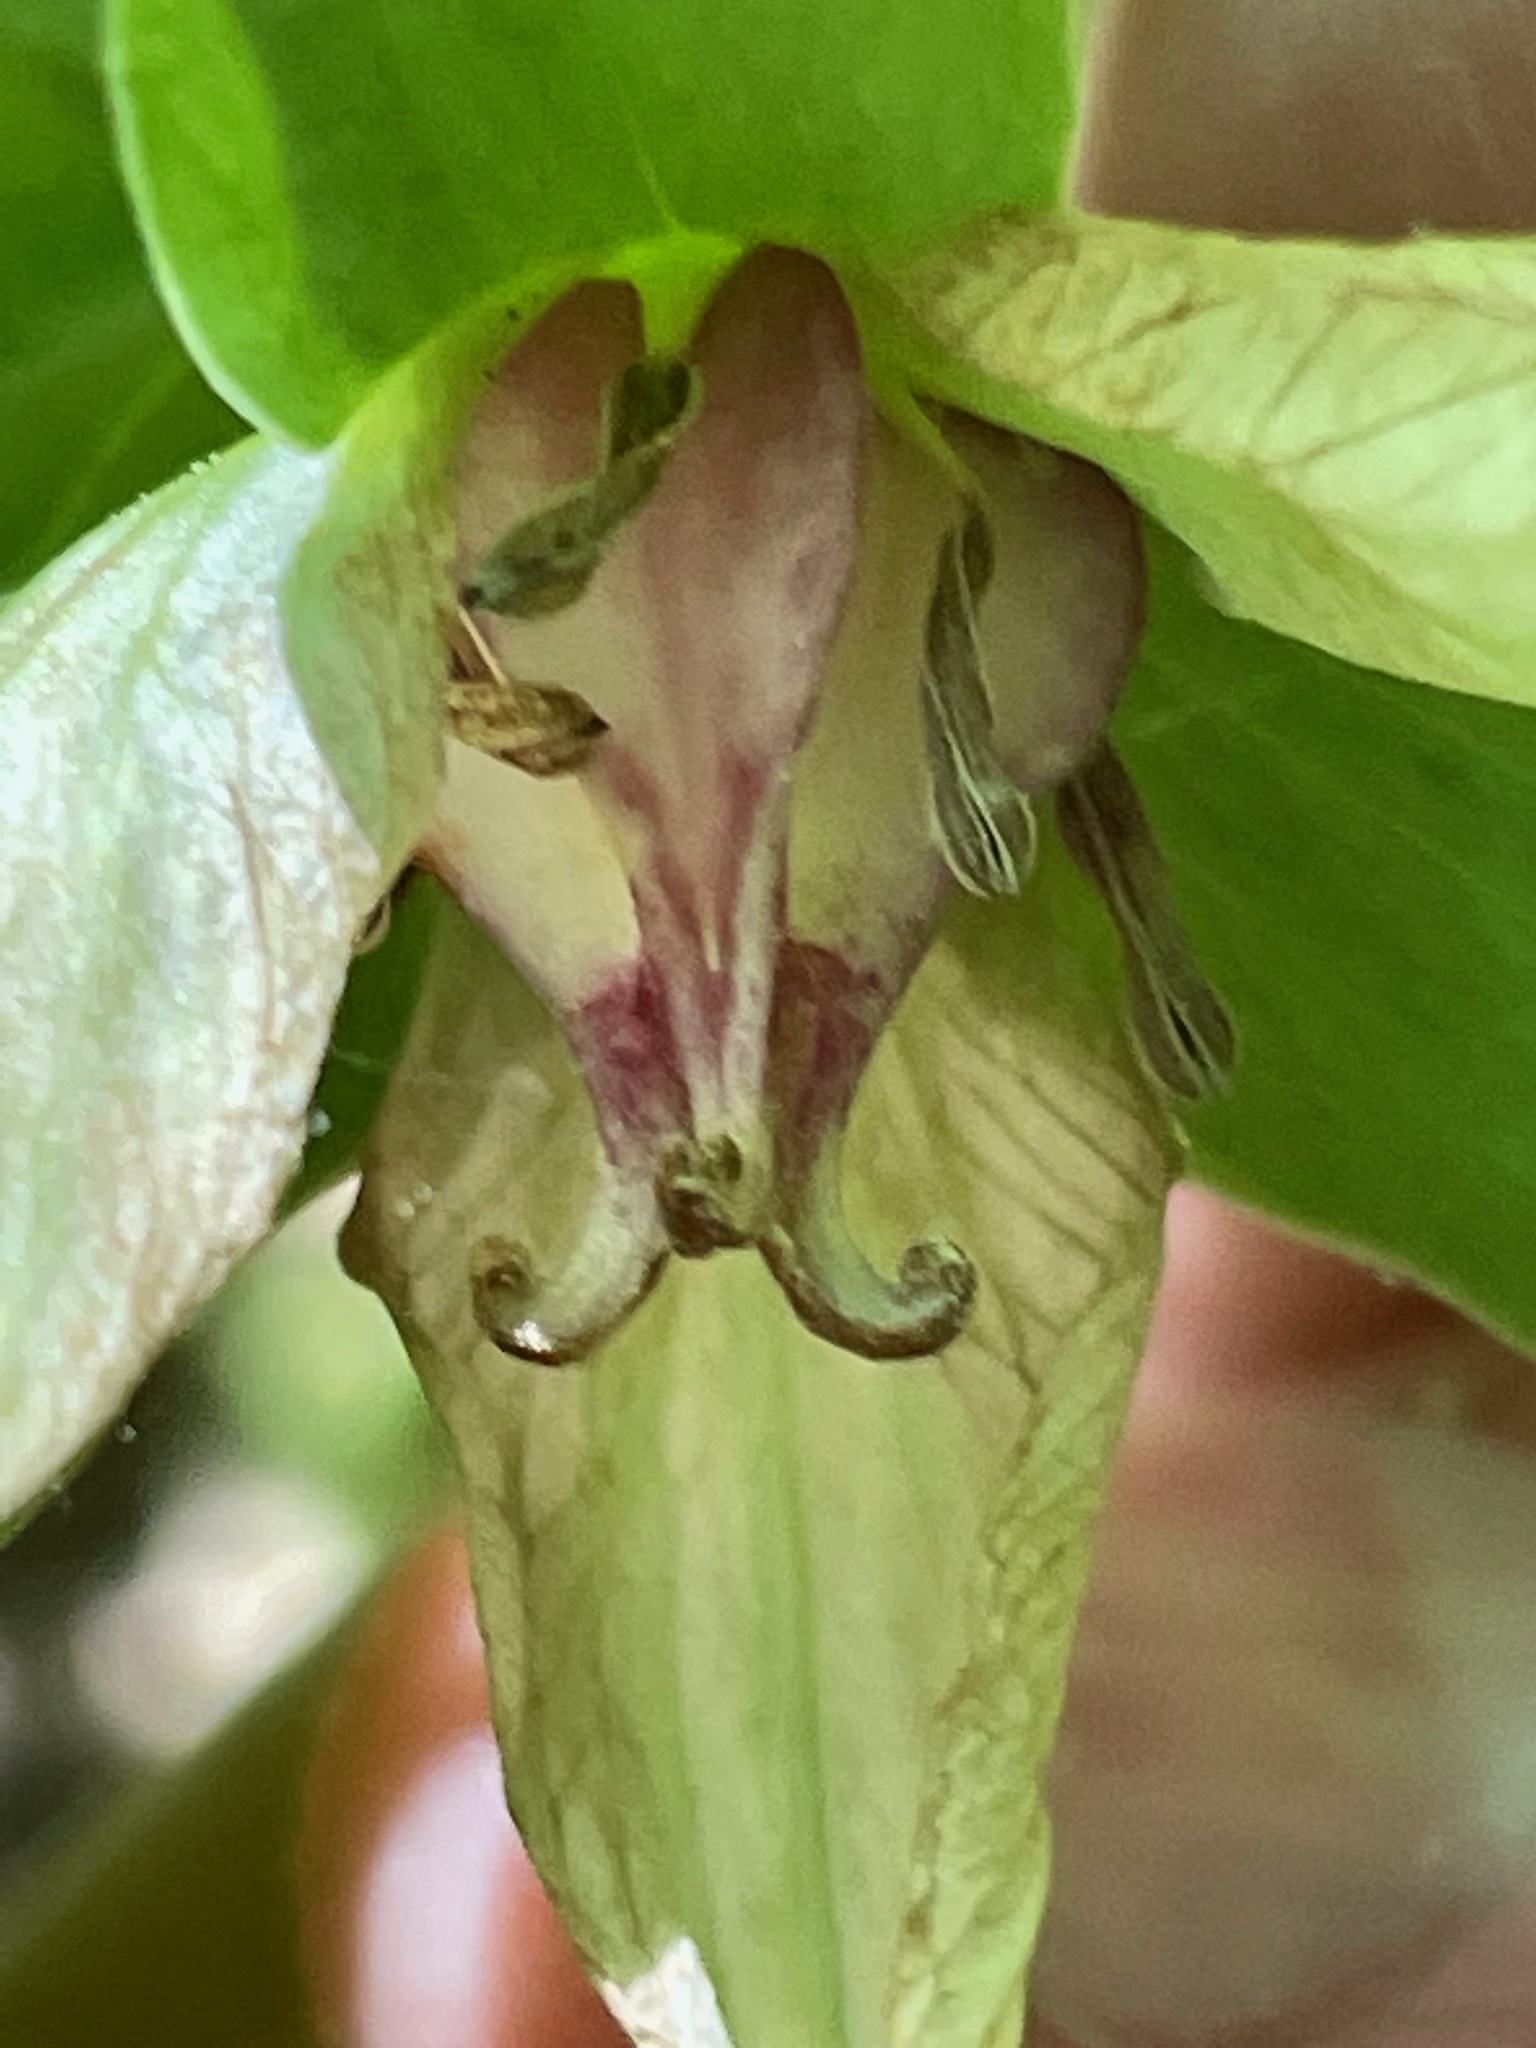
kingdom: Plantae
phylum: Tracheophyta
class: Liliopsida
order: Liliales
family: Melanthiaceae
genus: Trillium
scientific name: Trillium cernuum
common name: Nodding trillium
